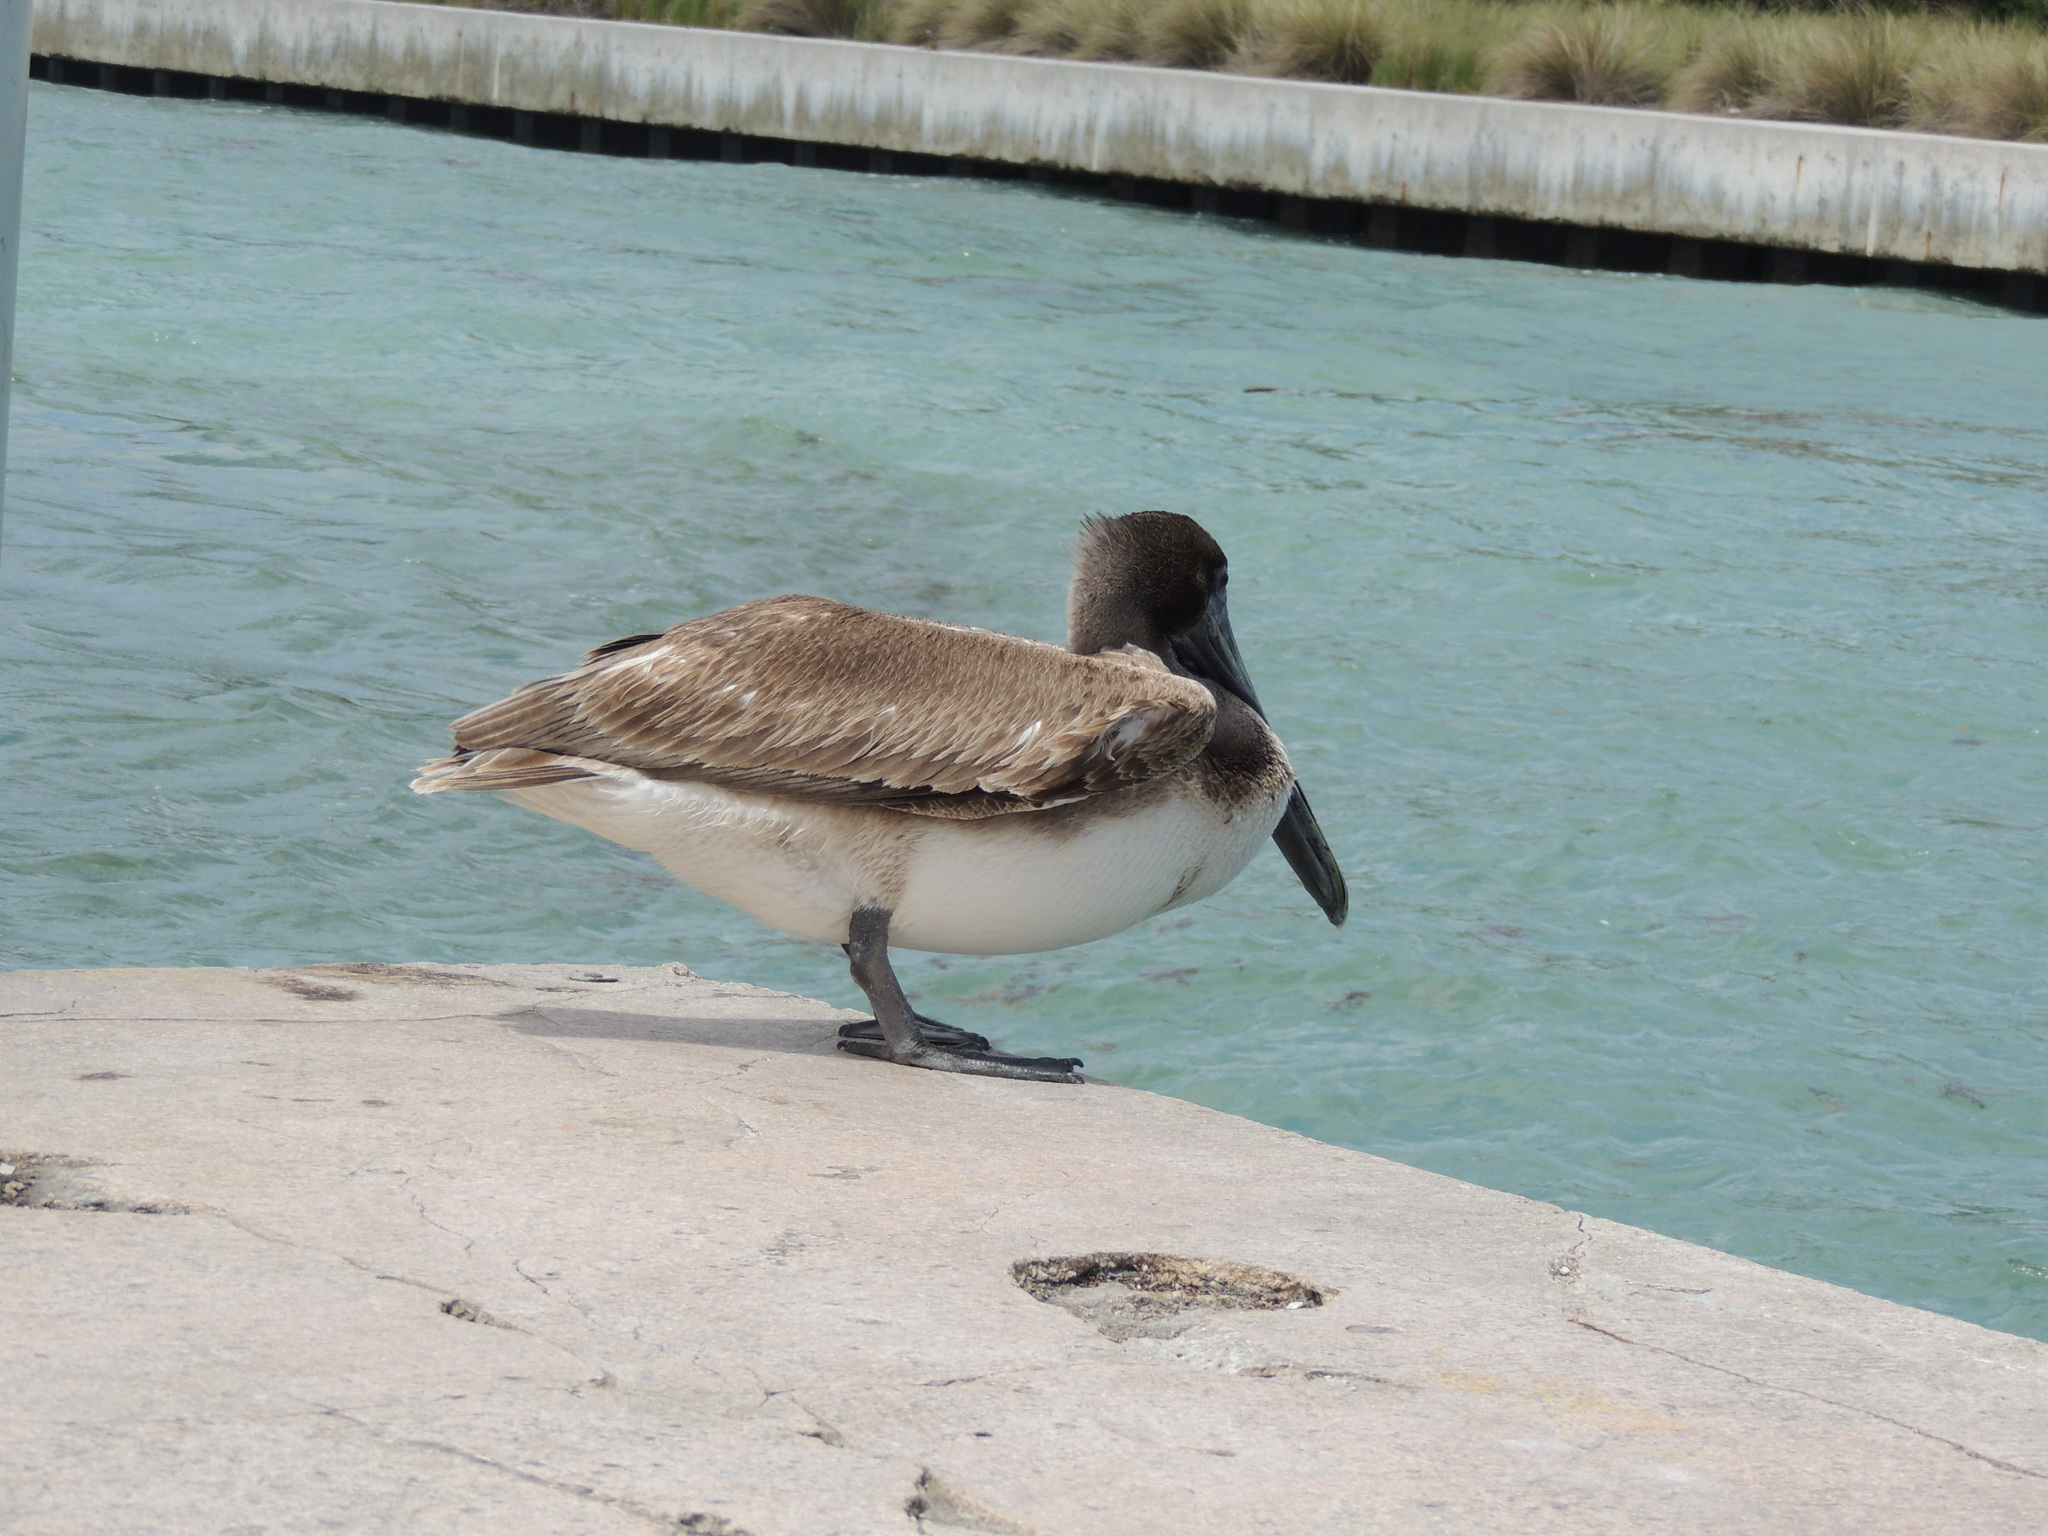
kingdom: Animalia
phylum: Chordata
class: Aves
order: Pelecaniformes
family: Pelecanidae
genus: Pelecanus
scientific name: Pelecanus occidentalis
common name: Brown pelican
